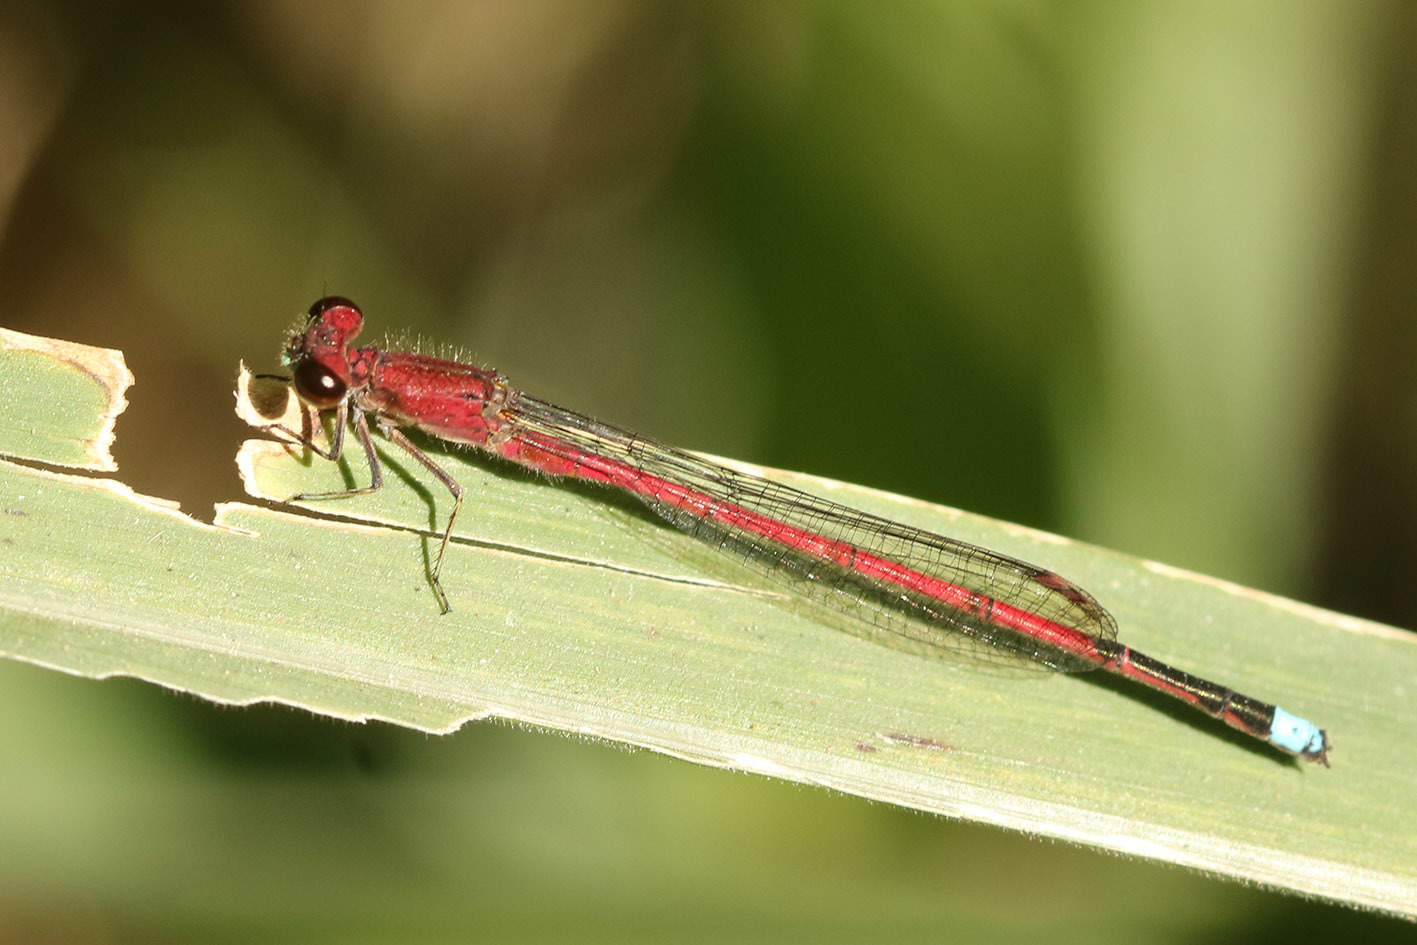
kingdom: Animalia
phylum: Arthropoda
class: Insecta
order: Odonata
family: Coenagrionidae
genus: Oxyagrion
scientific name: Oxyagrion terminale
